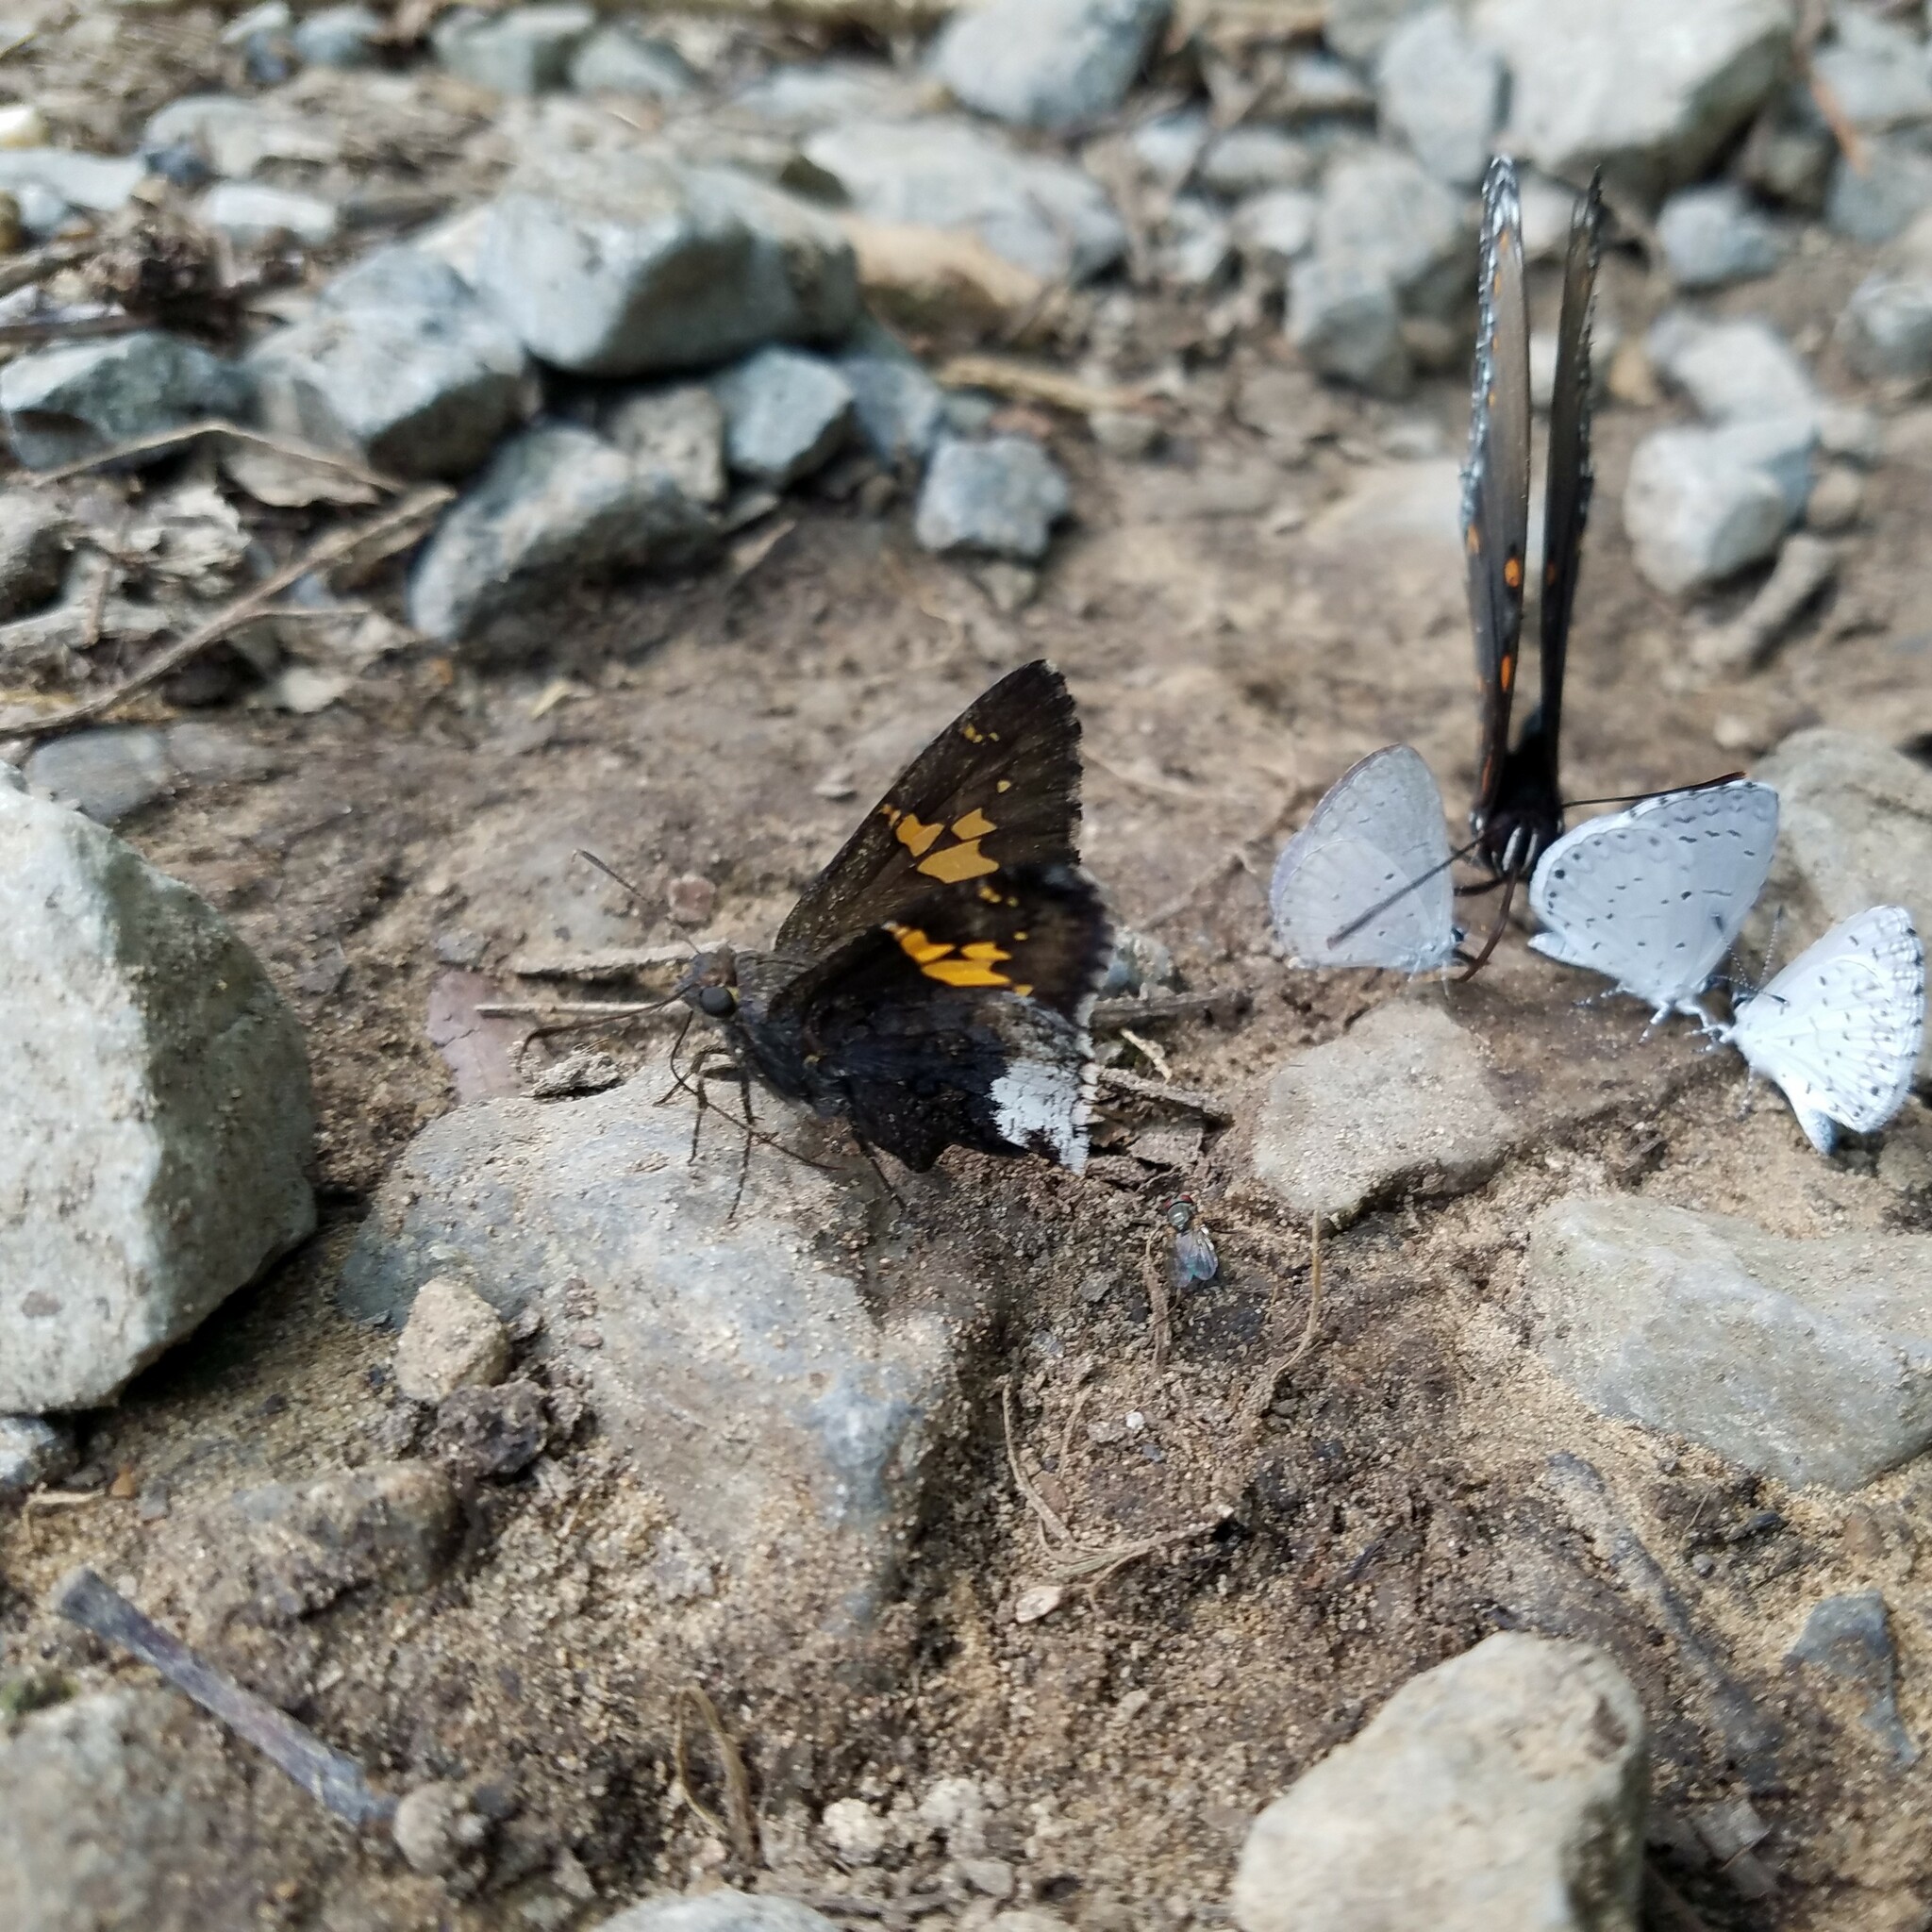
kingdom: Animalia
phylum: Arthropoda
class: Insecta
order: Lepidoptera
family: Hesperiidae
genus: Thorybes
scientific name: Thorybes lyciades
